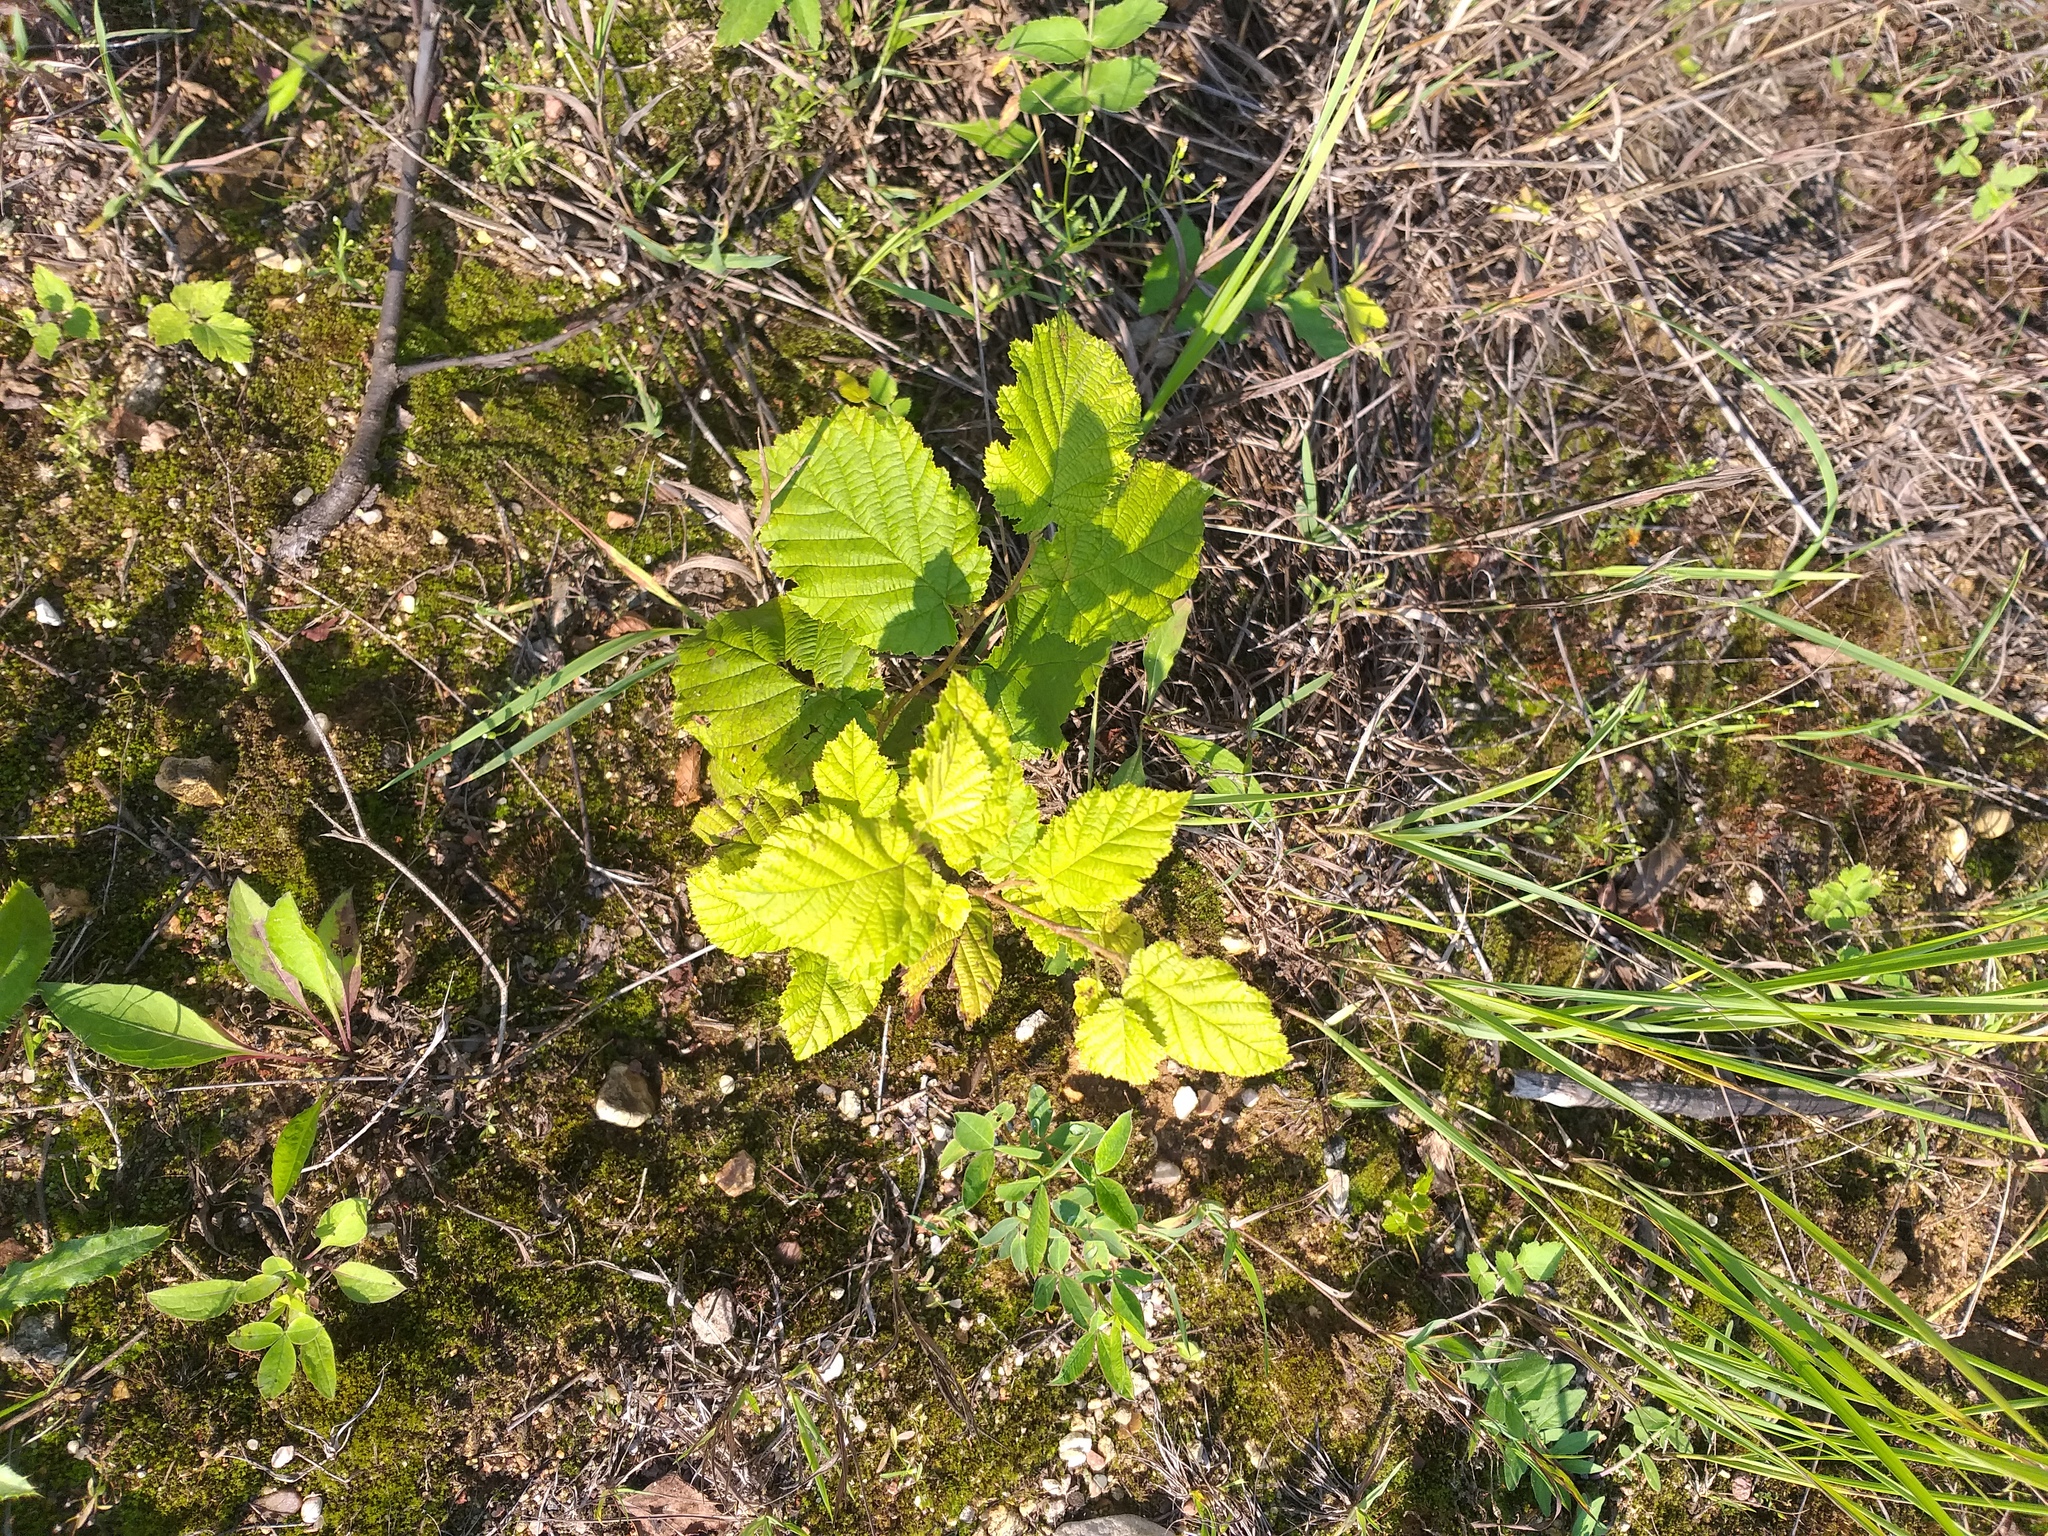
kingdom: Plantae
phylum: Tracheophyta
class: Magnoliopsida
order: Fagales
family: Betulaceae
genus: Corylus
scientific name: Corylus avellana
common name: European hazel
